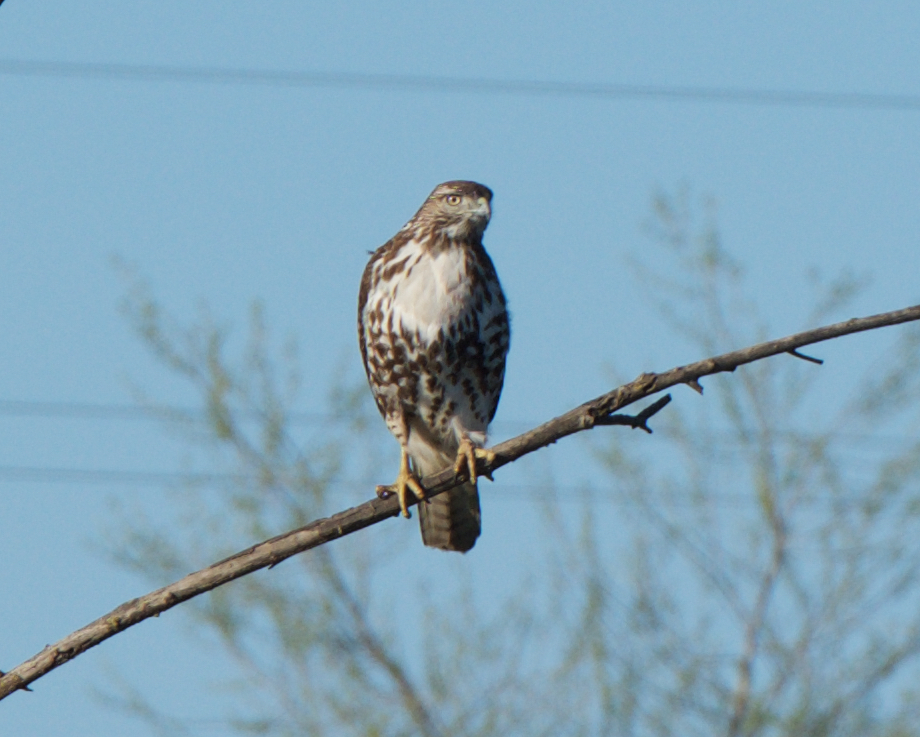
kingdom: Animalia
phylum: Chordata
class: Aves
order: Accipitriformes
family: Accipitridae
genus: Buteo
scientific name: Buteo jamaicensis
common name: Red-tailed hawk
